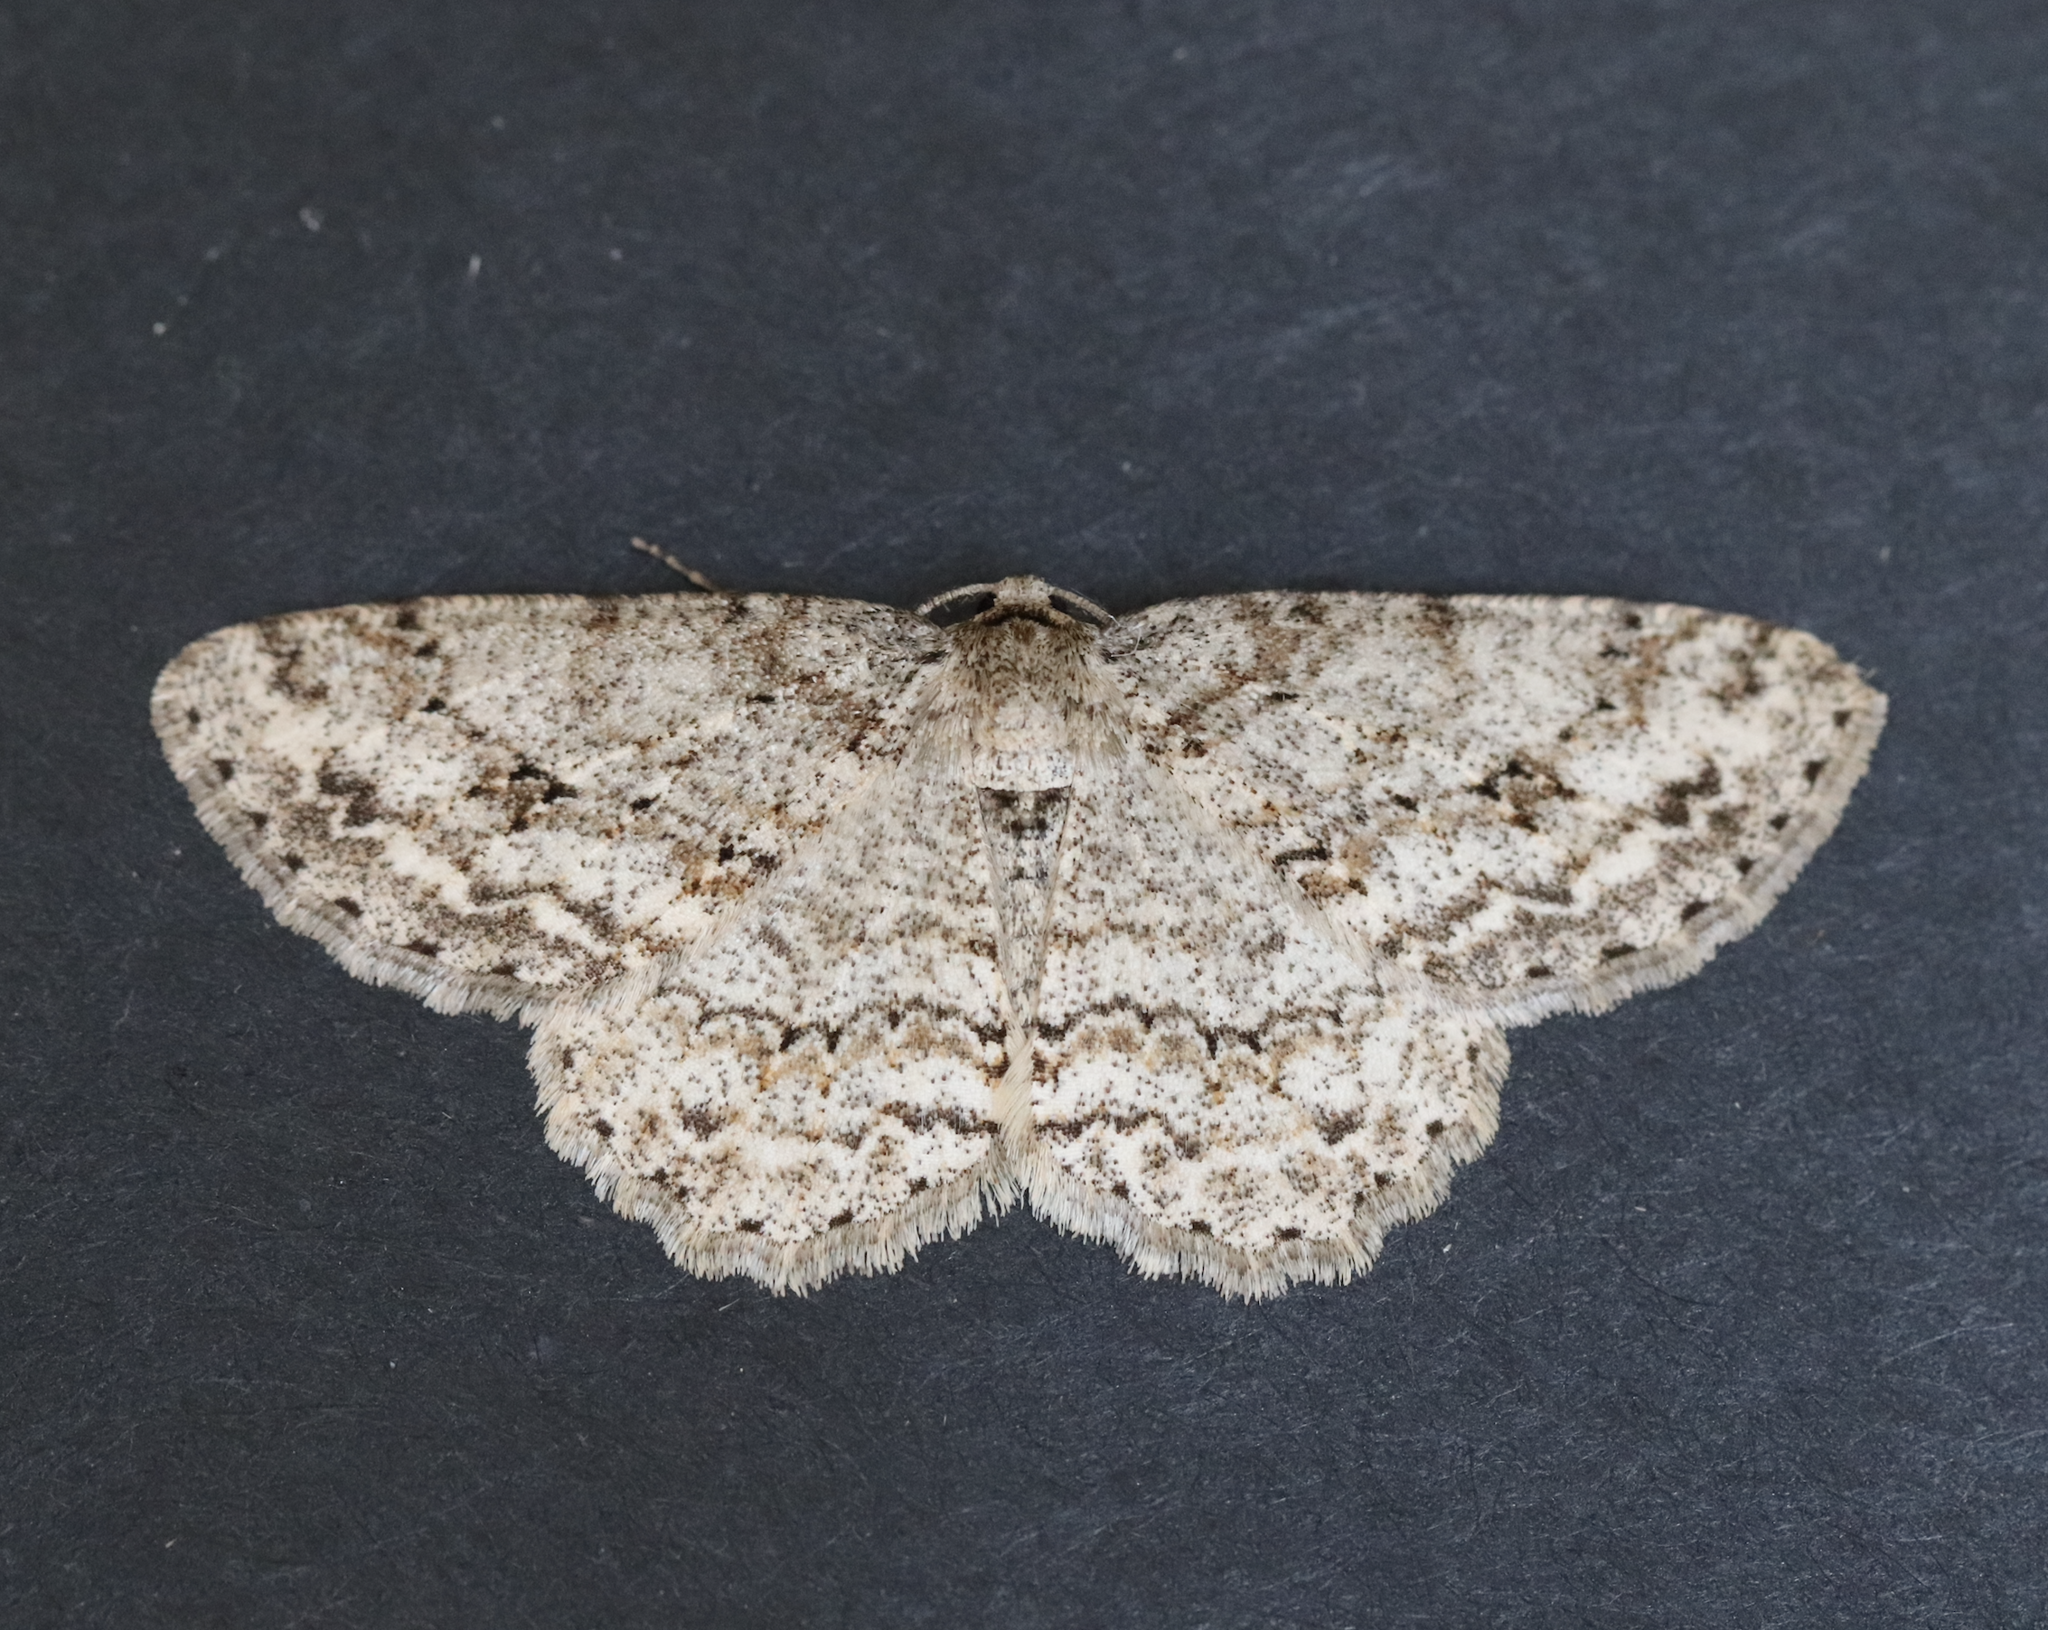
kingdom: Animalia
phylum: Arthropoda
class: Insecta
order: Lepidoptera
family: Geometridae
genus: Ectropis
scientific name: Ectropis crepuscularia
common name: Engrailed
